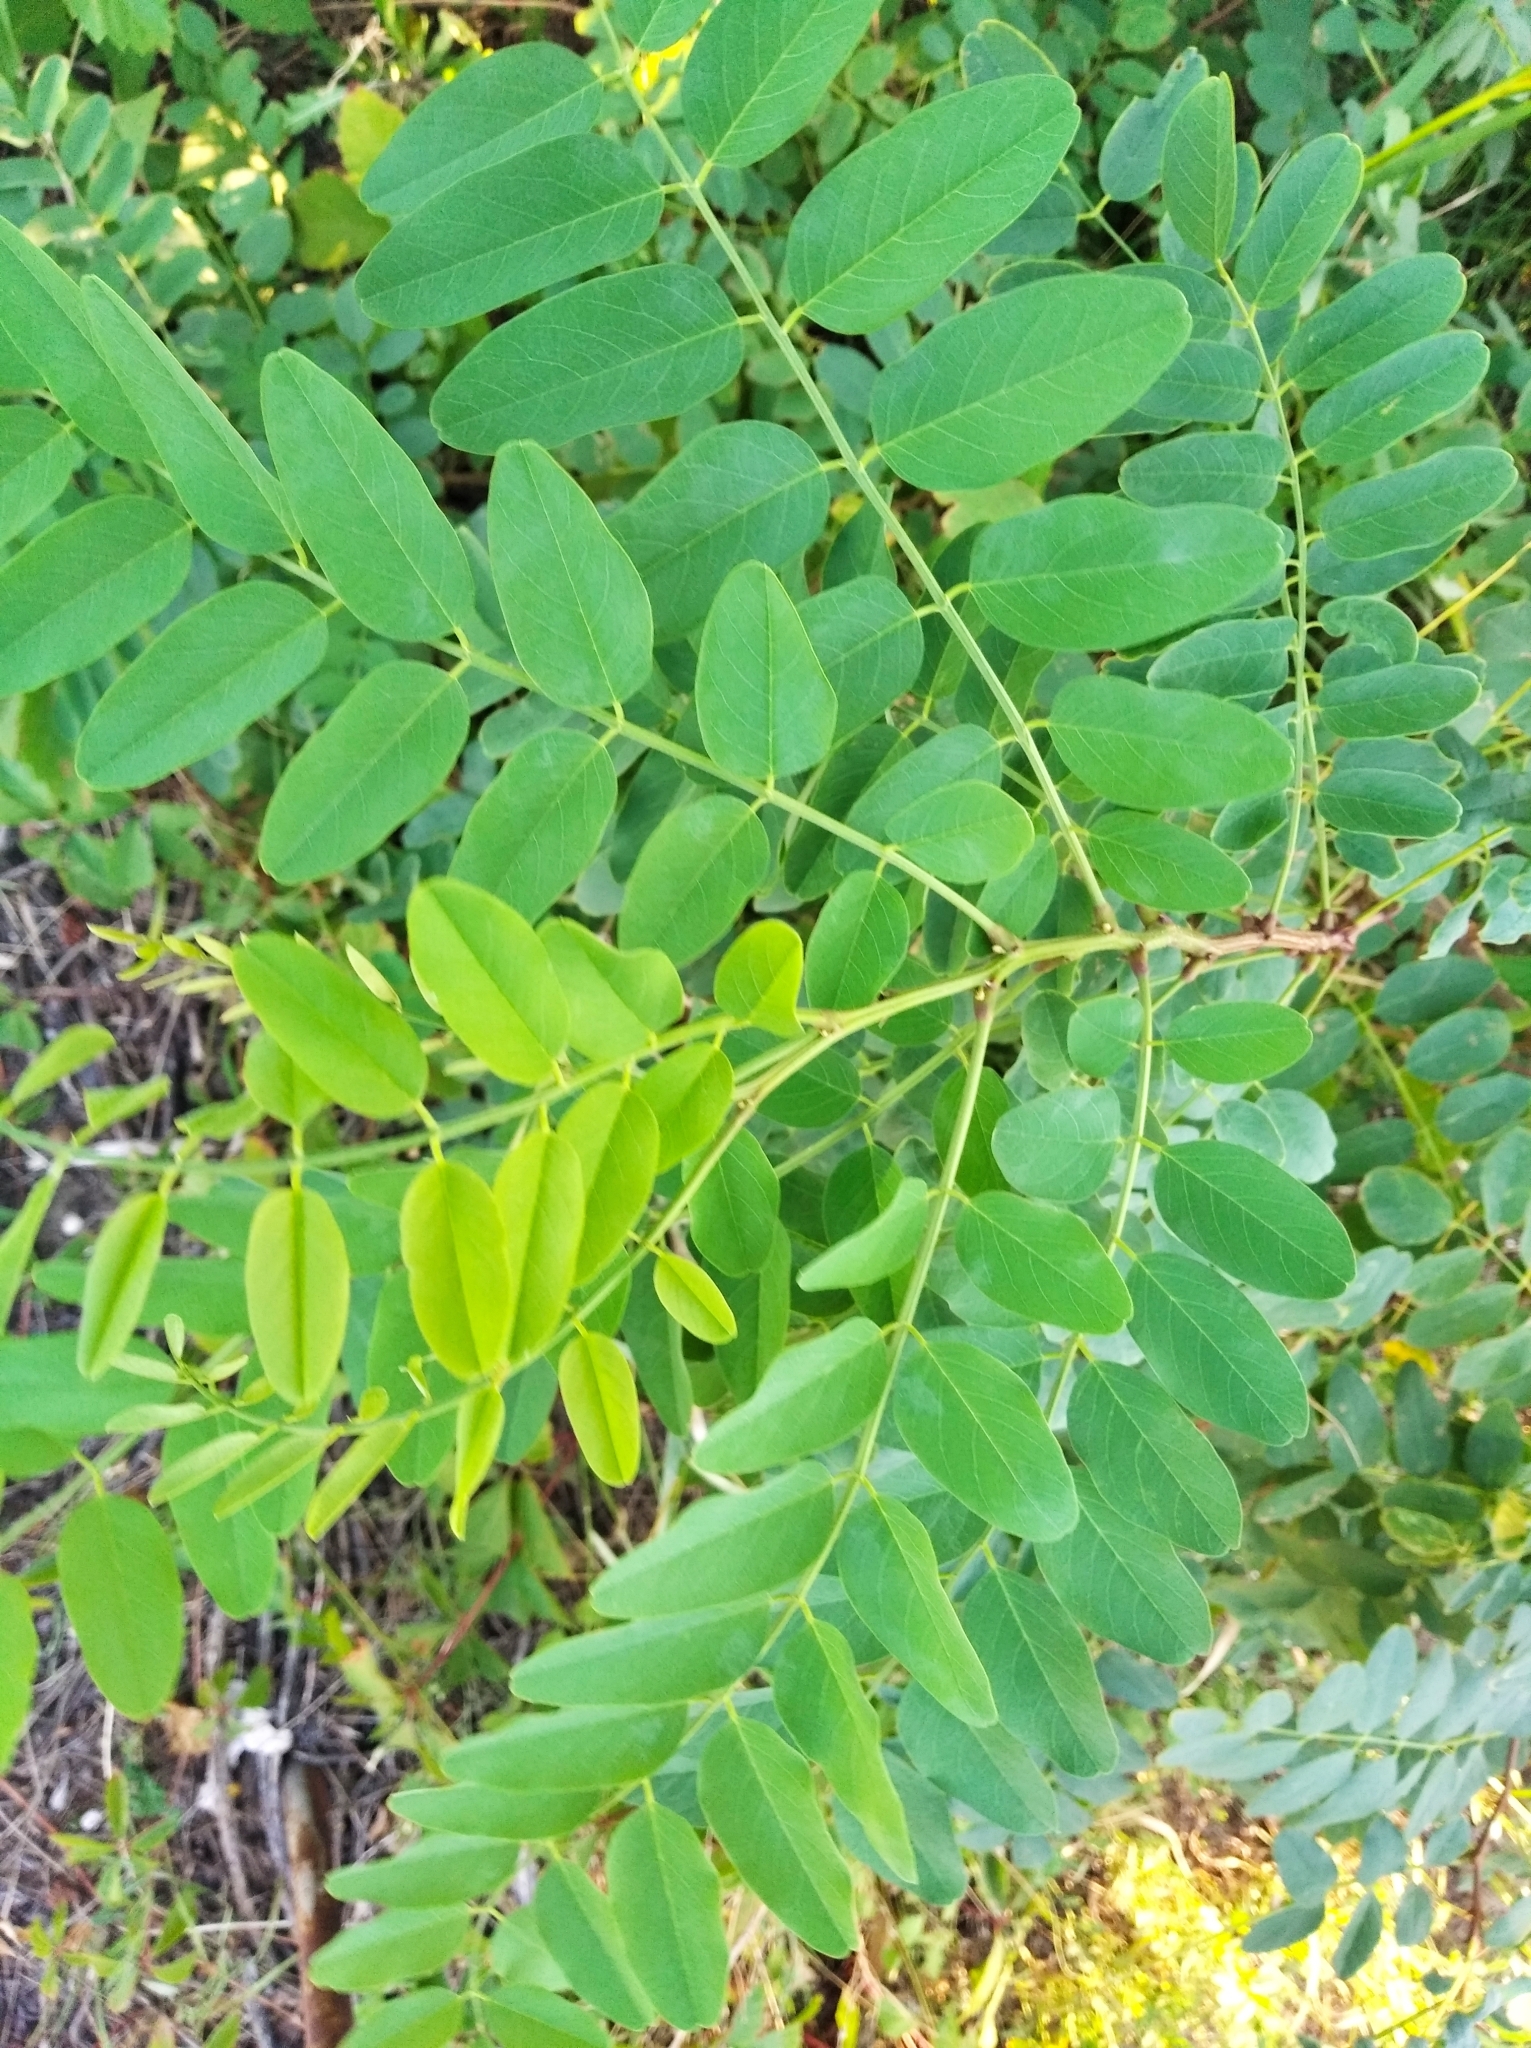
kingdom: Plantae
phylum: Tracheophyta
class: Magnoliopsida
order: Fabales
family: Fabaceae
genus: Robinia
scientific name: Robinia pseudoacacia
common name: Black locust
